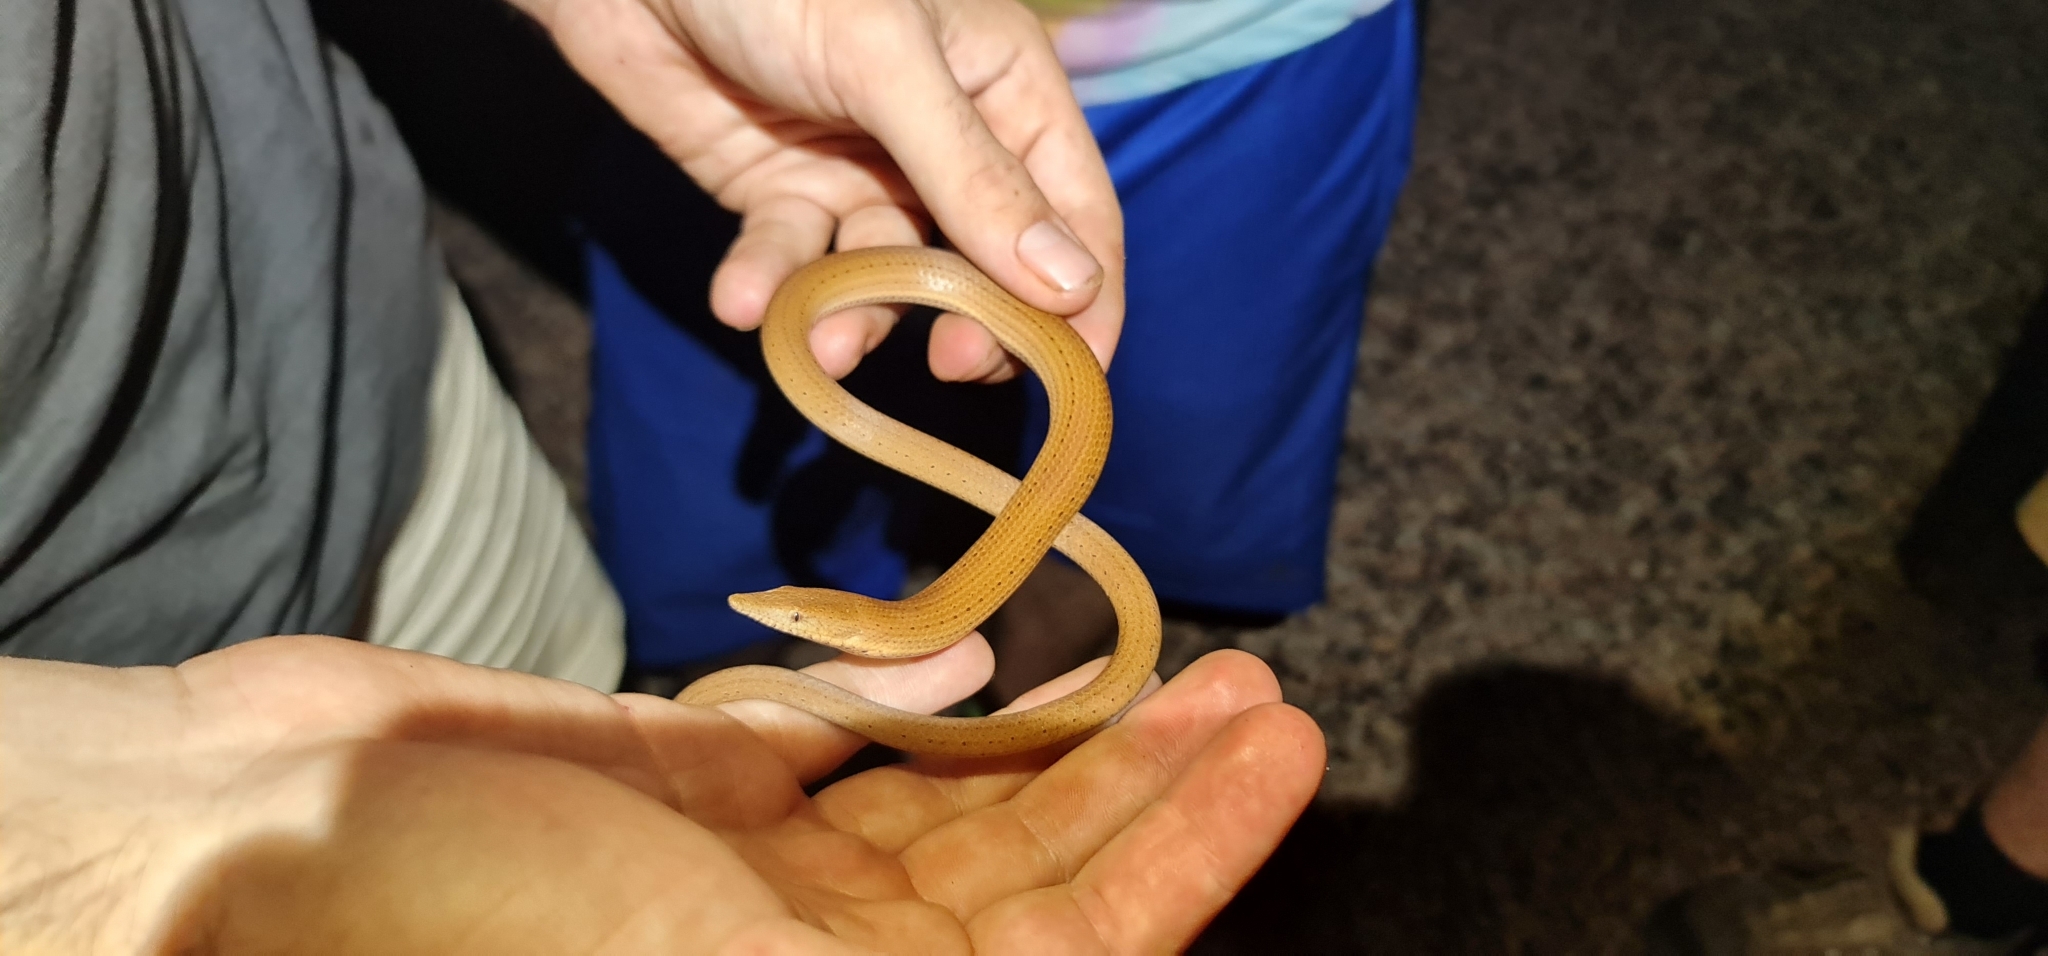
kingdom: Animalia
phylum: Chordata
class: Squamata
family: Pygopodidae
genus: Lialis
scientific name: Lialis burtonis
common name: Burton's legless lizard
